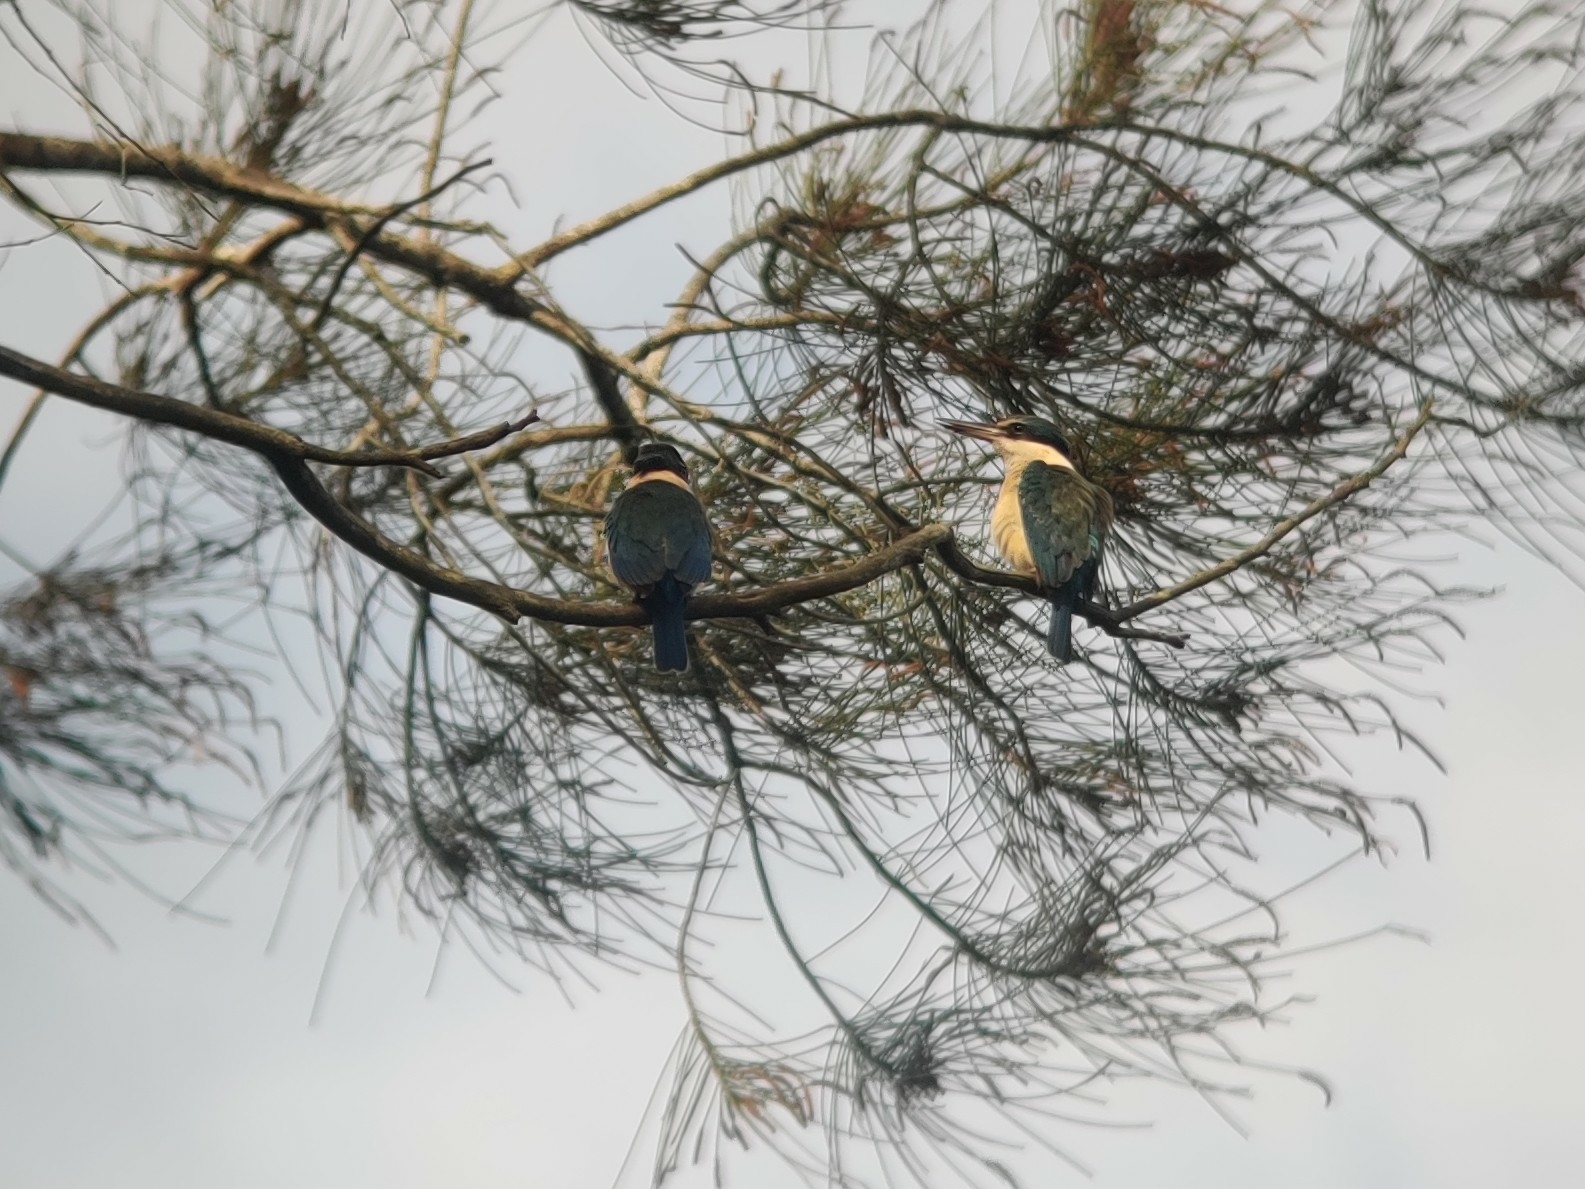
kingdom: Animalia
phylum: Chordata
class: Aves
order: Coraciiformes
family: Alcedinidae
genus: Todiramphus
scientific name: Todiramphus sanctus
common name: Sacred kingfisher
